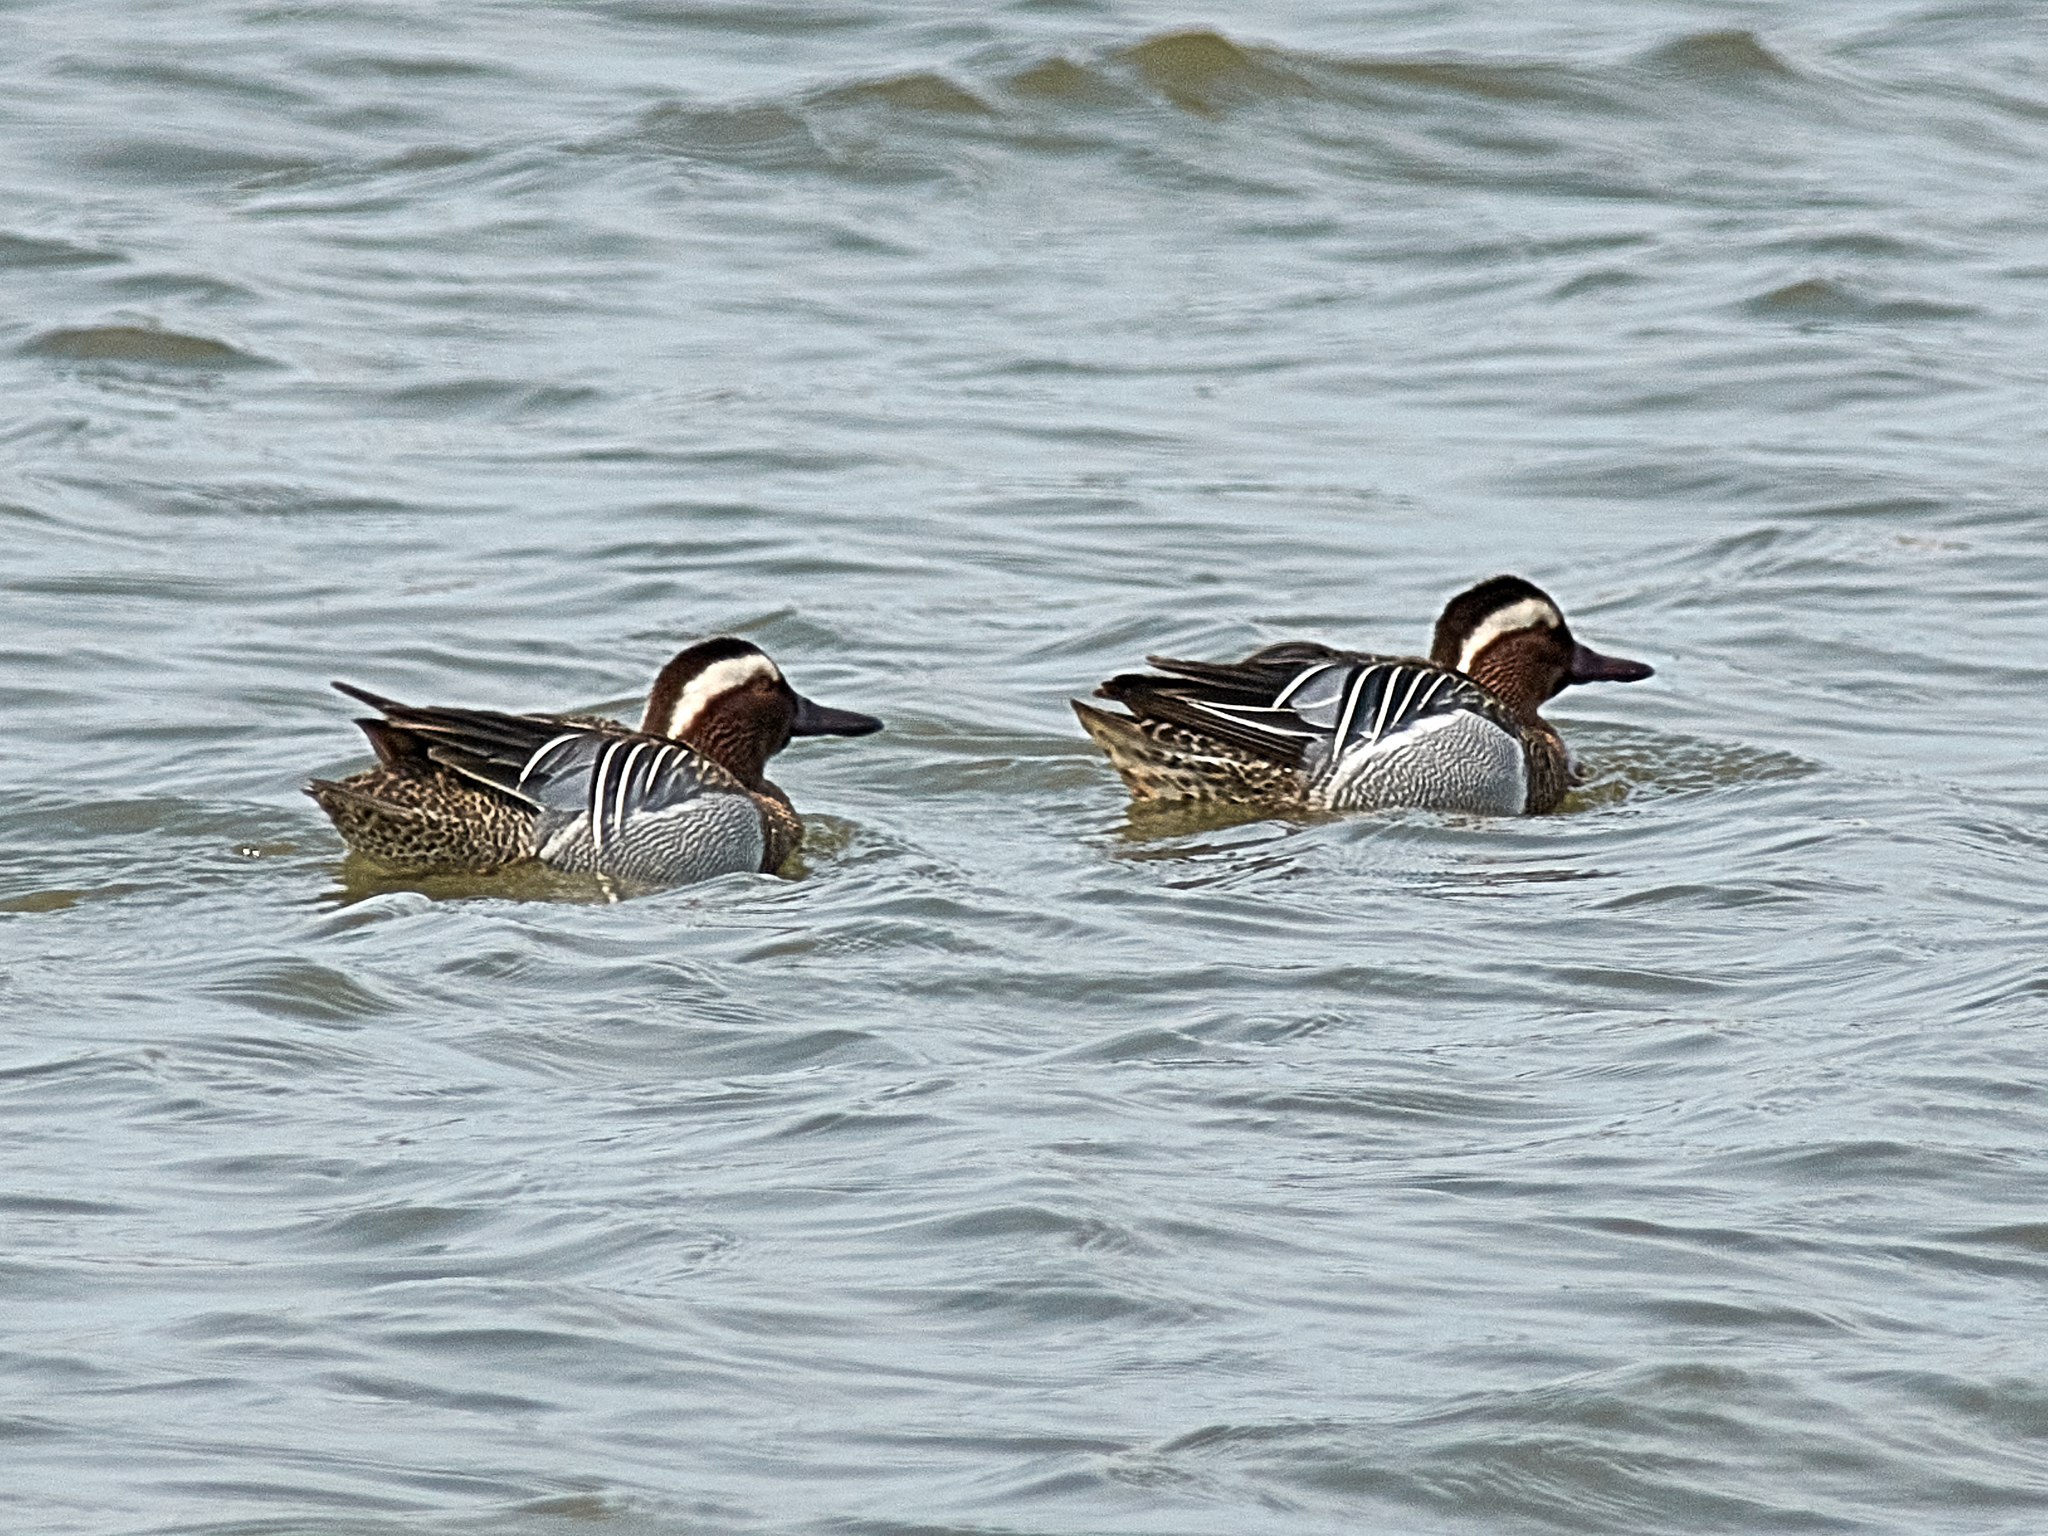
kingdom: Animalia
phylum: Chordata
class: Aves
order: Anseriformes
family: Anatidae
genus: Spatula
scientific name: Spatula querquedula
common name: Garganey
